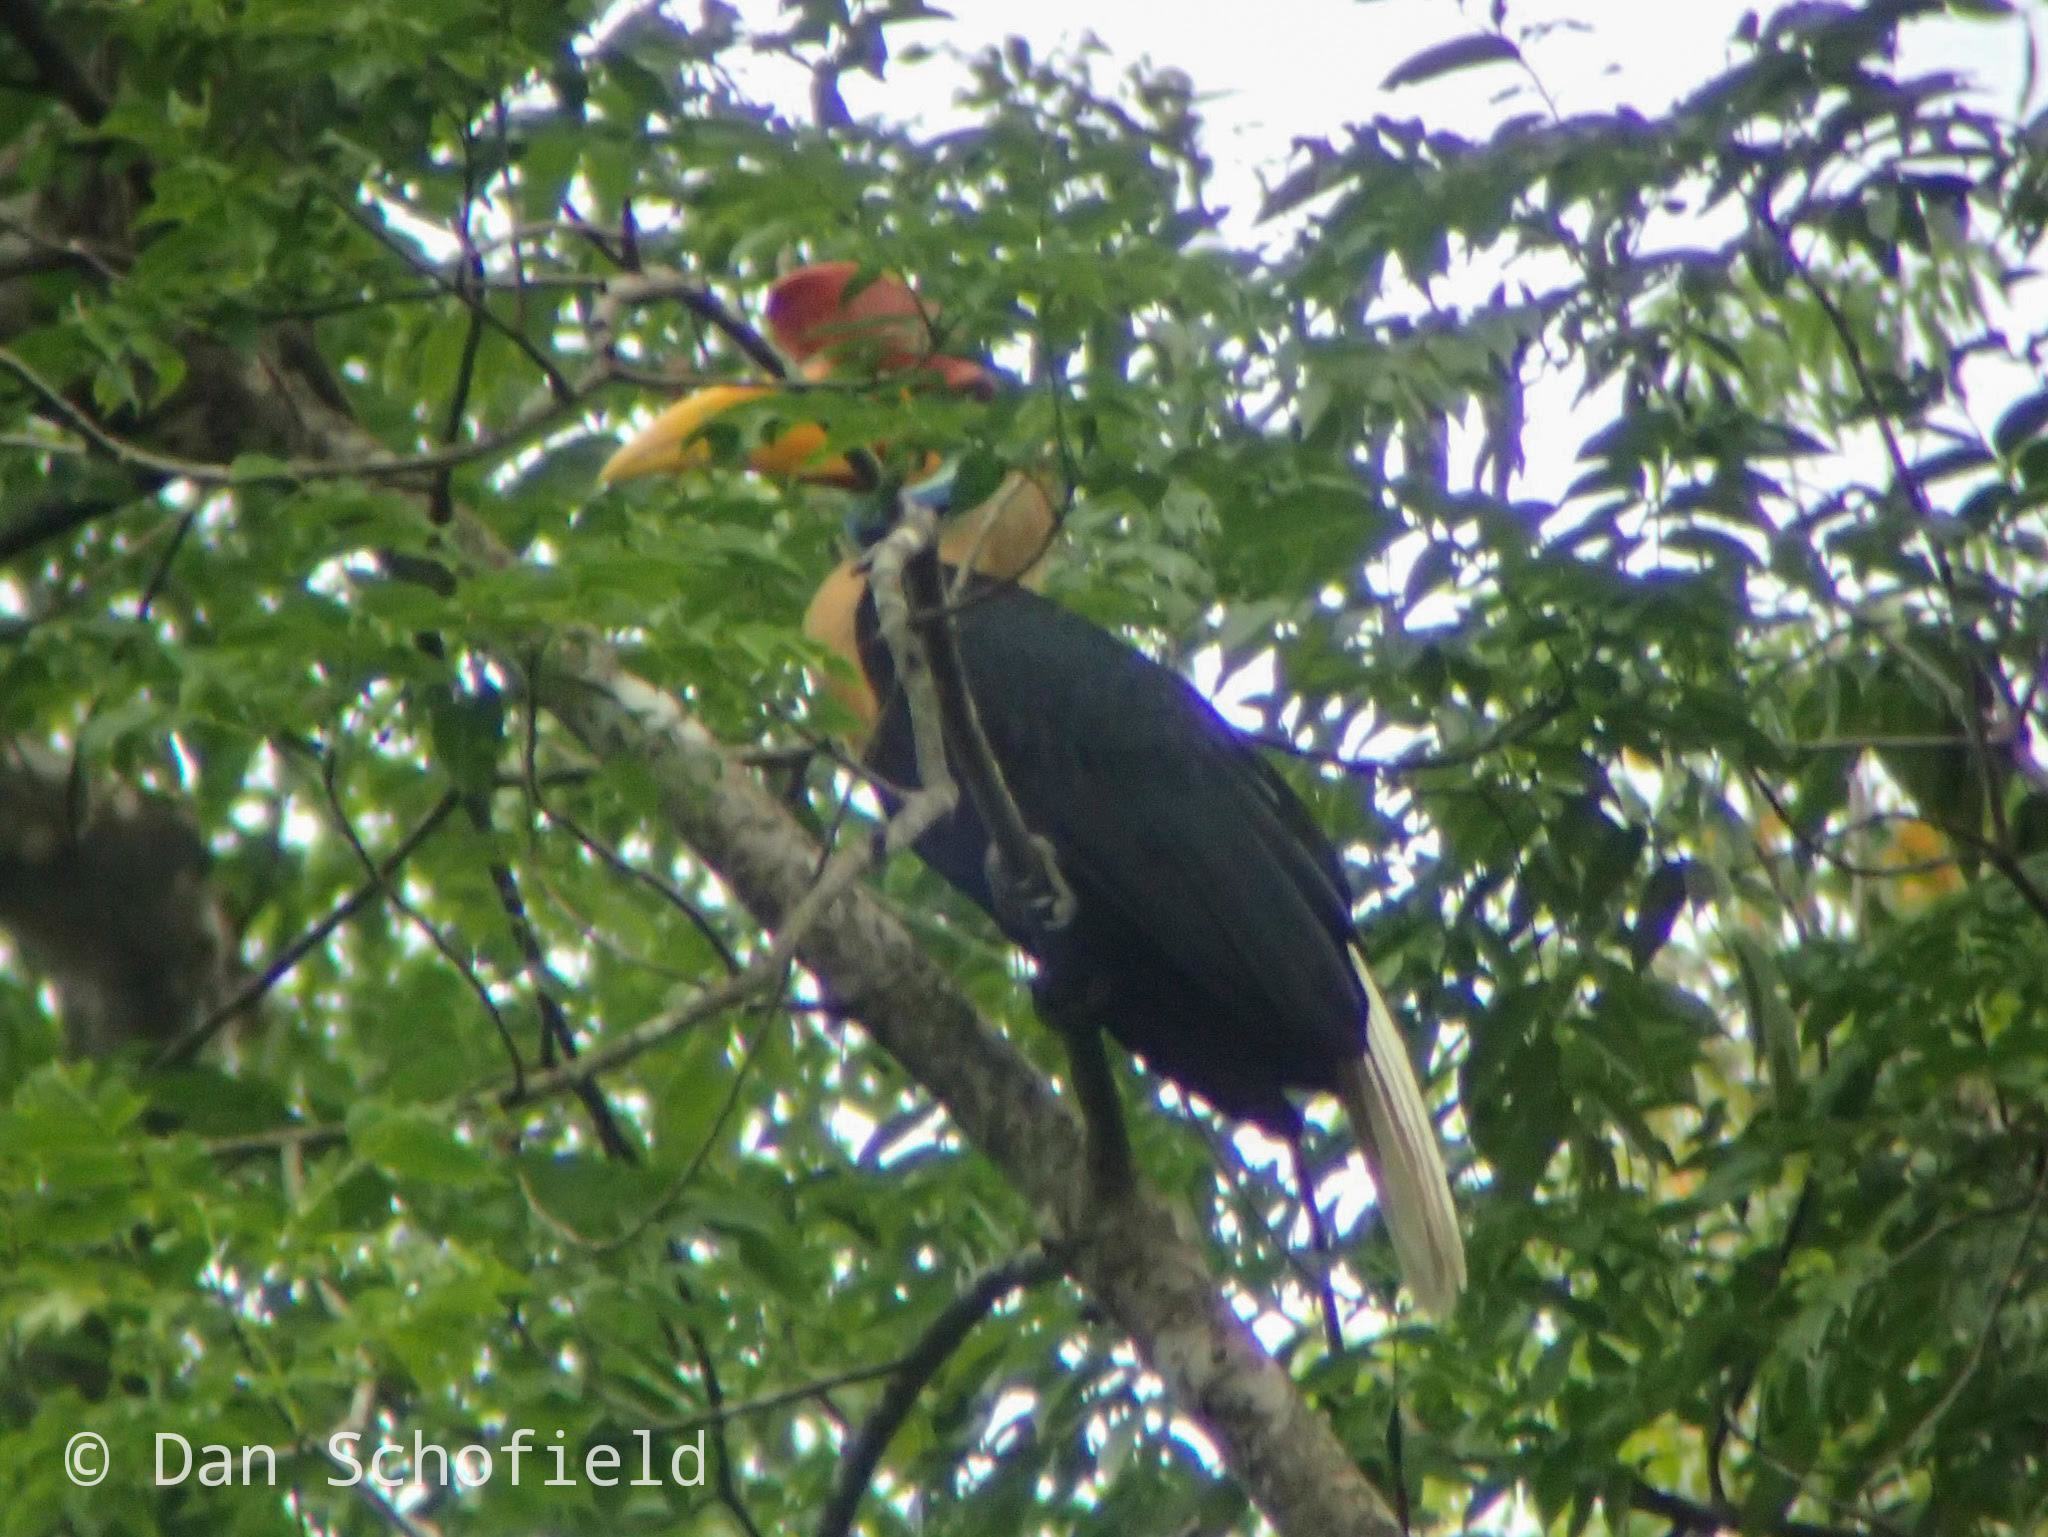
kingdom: Animalia
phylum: Chordata
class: Aves
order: Bucerotiformes
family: Bucerotidae
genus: Rhyticeros
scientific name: Rhyticeros cassidix
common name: Knobbed hornbill
